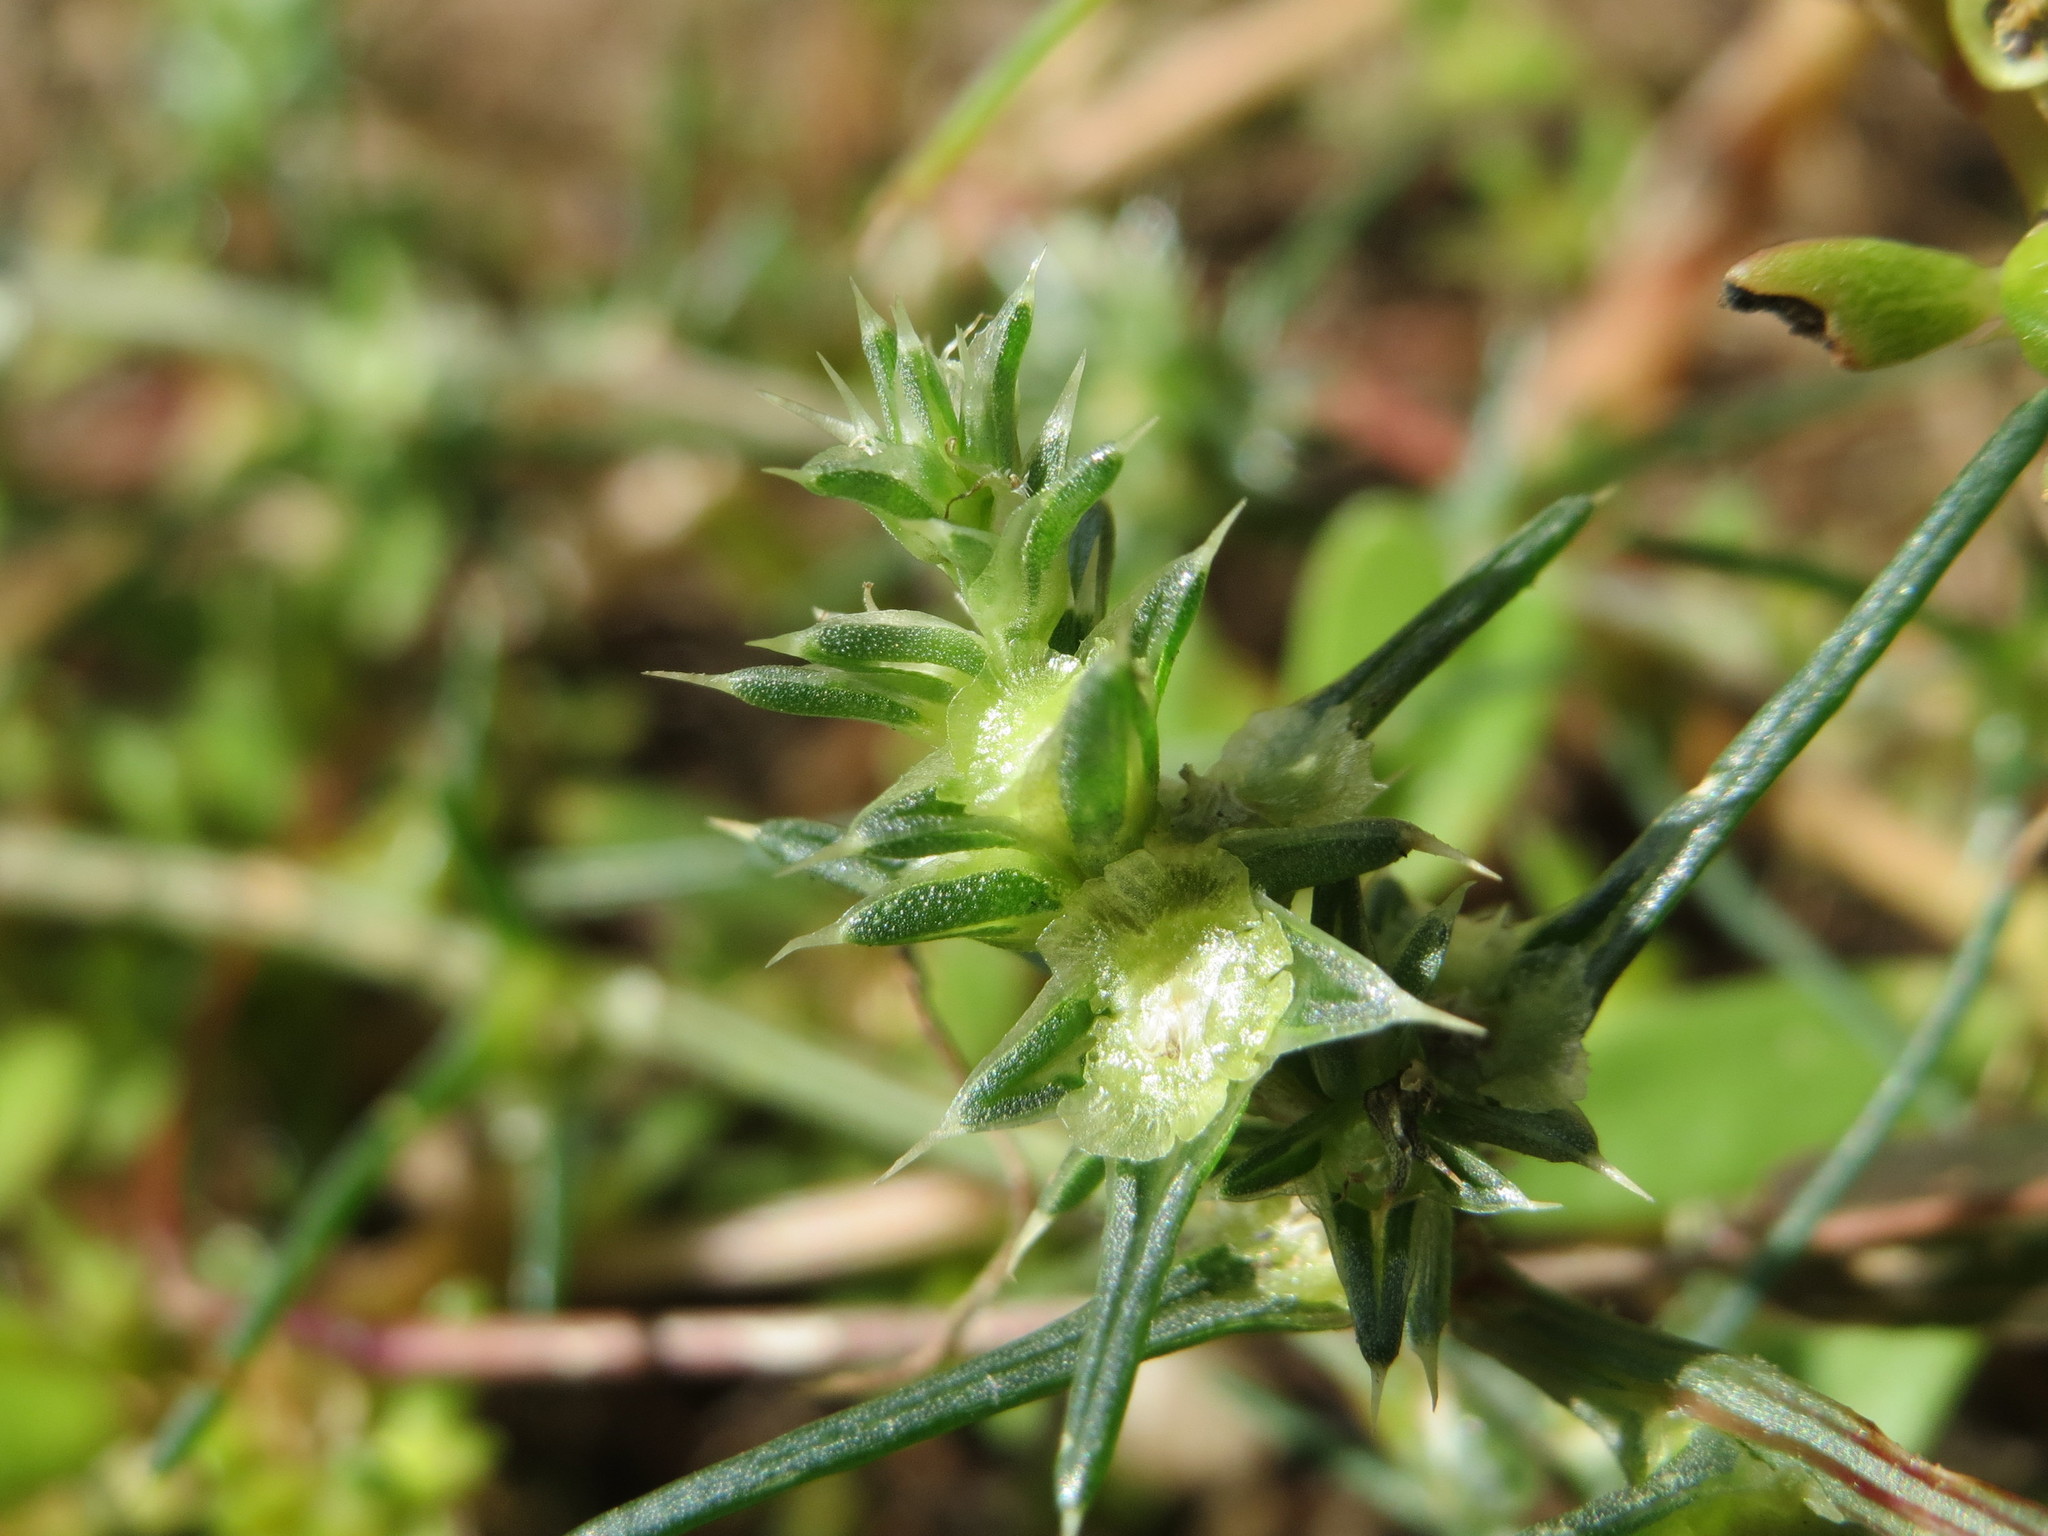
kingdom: Plantae
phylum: Tracheophyta
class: Magnoliopsida
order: Caryophyllales
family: Amaranthaceae
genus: Salsola
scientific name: Salsola tragus
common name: Prickly russian thistle
